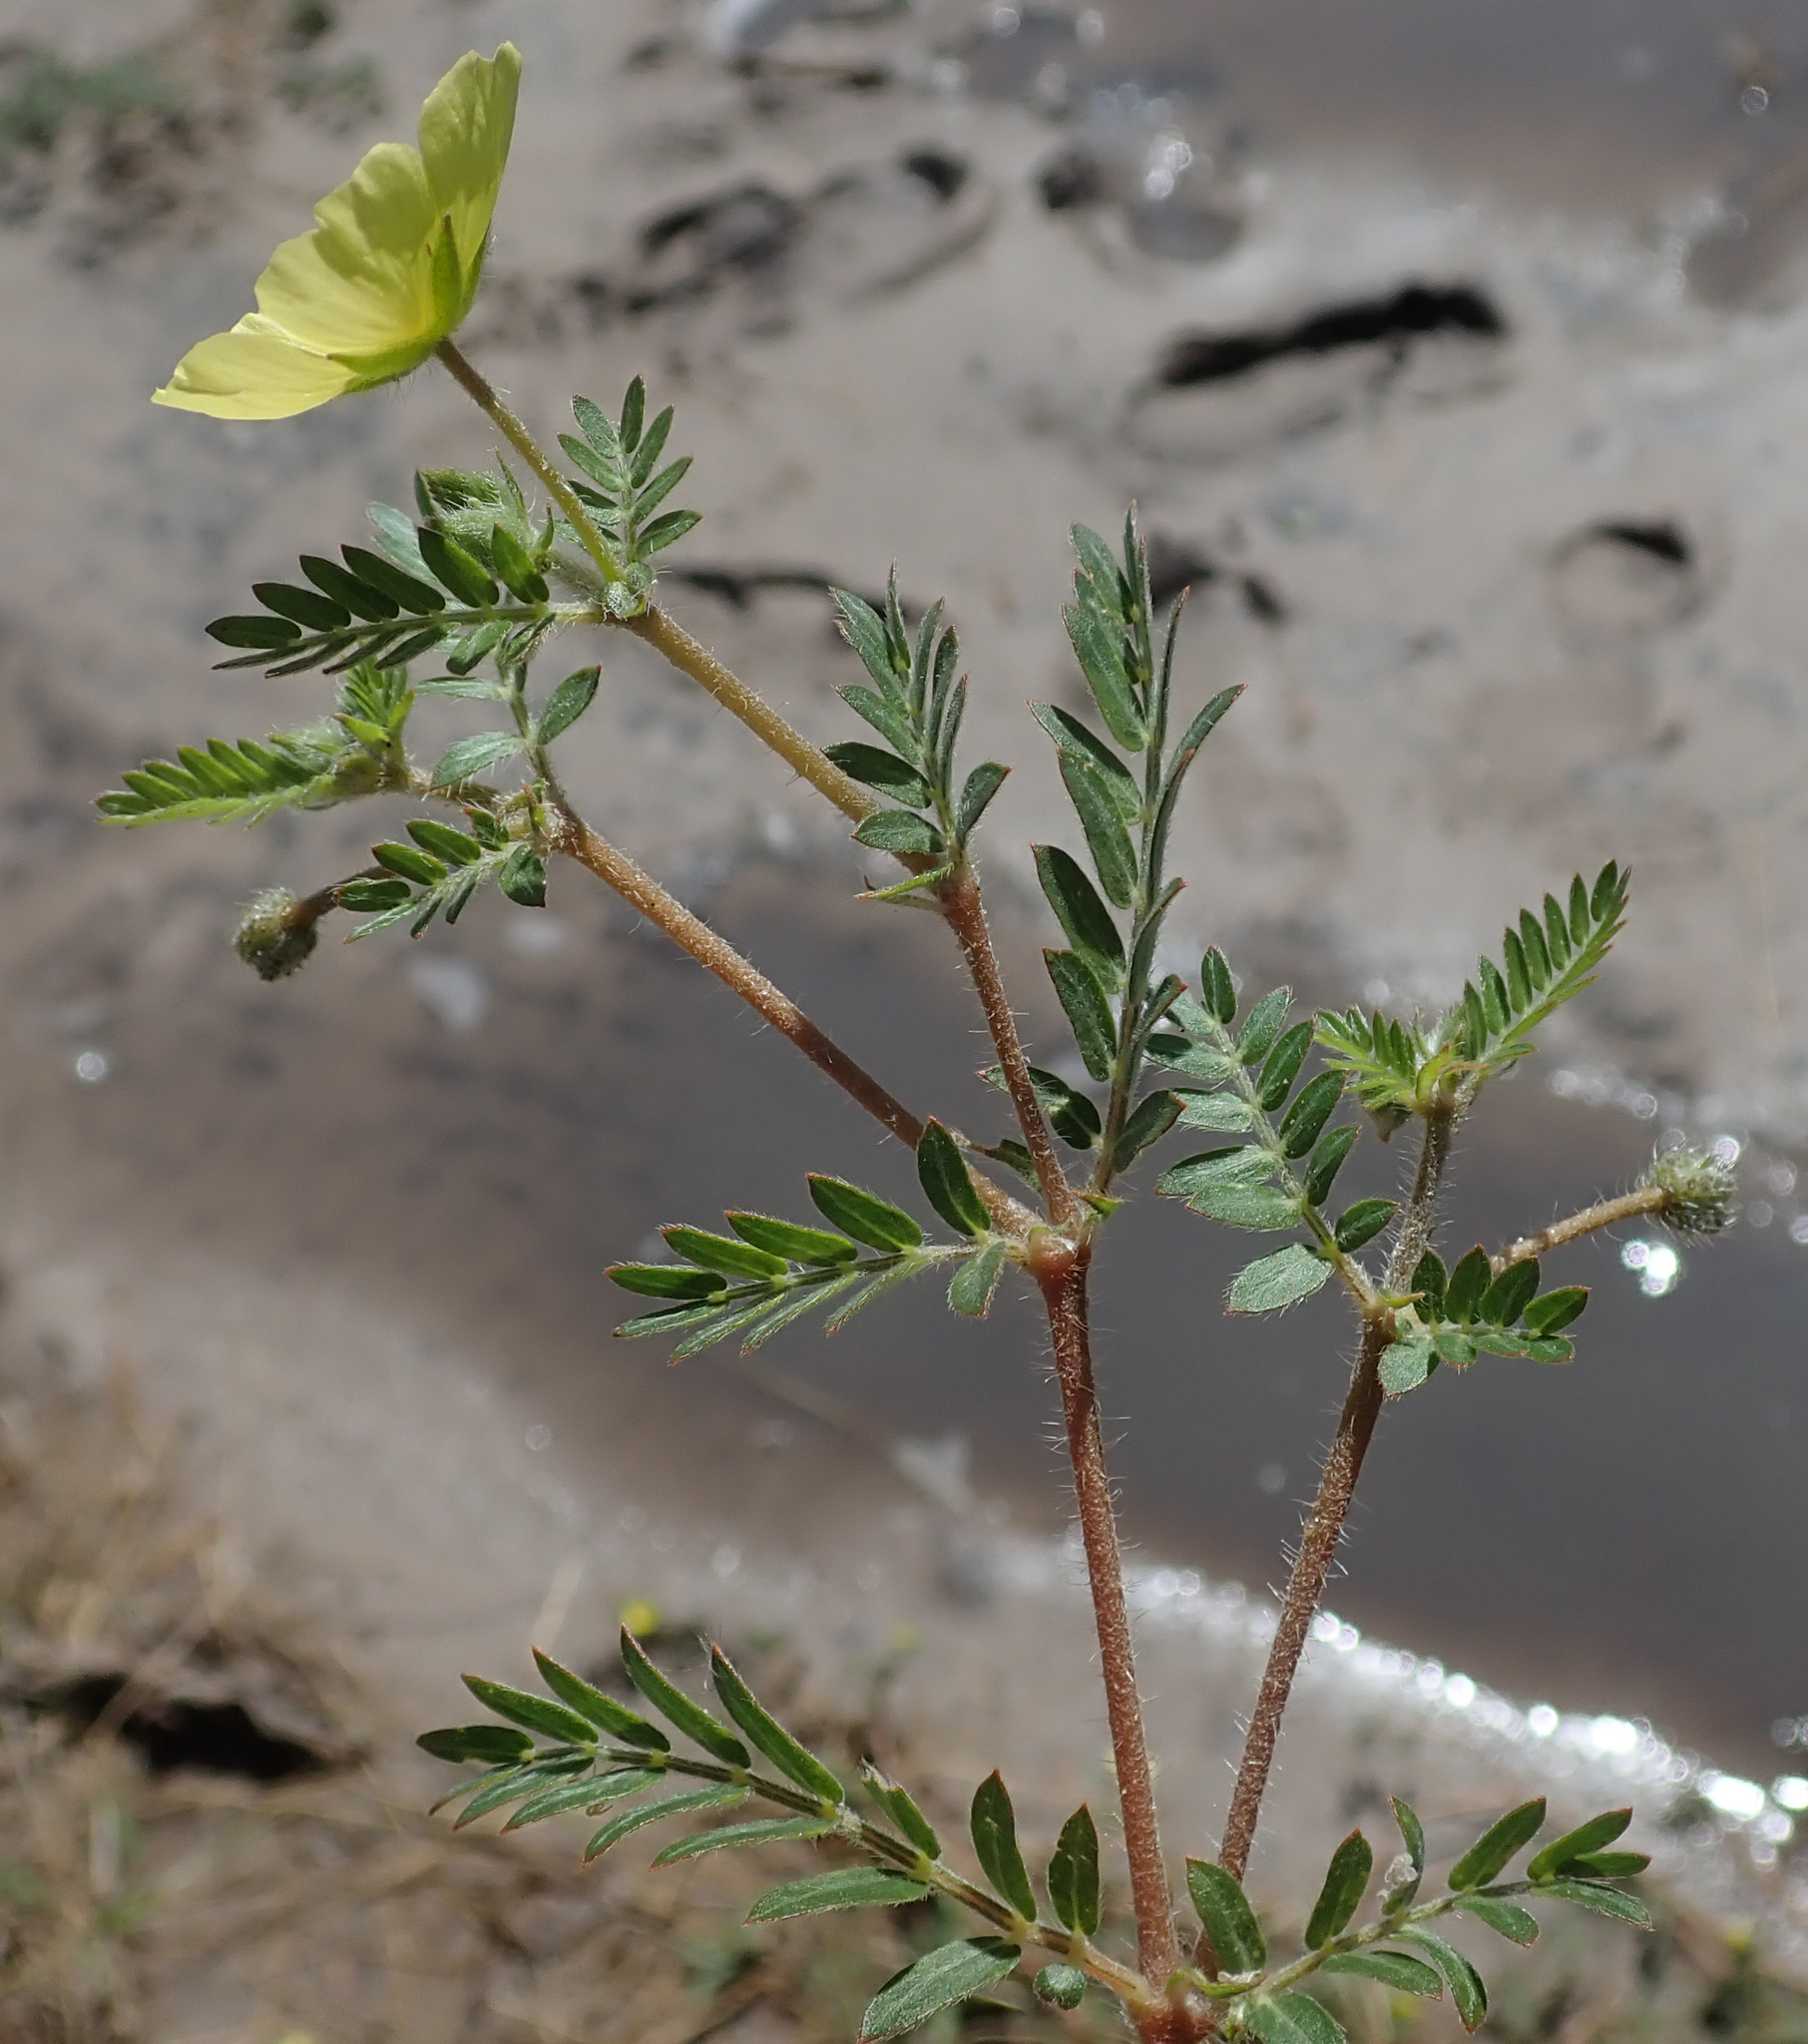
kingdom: Plantae
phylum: Tracheophyta
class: Magnoliopsida
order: Zygophyllales
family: Zygophyllaceae
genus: Tribulus
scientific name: Tribulus terrestris
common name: Puncturevine
